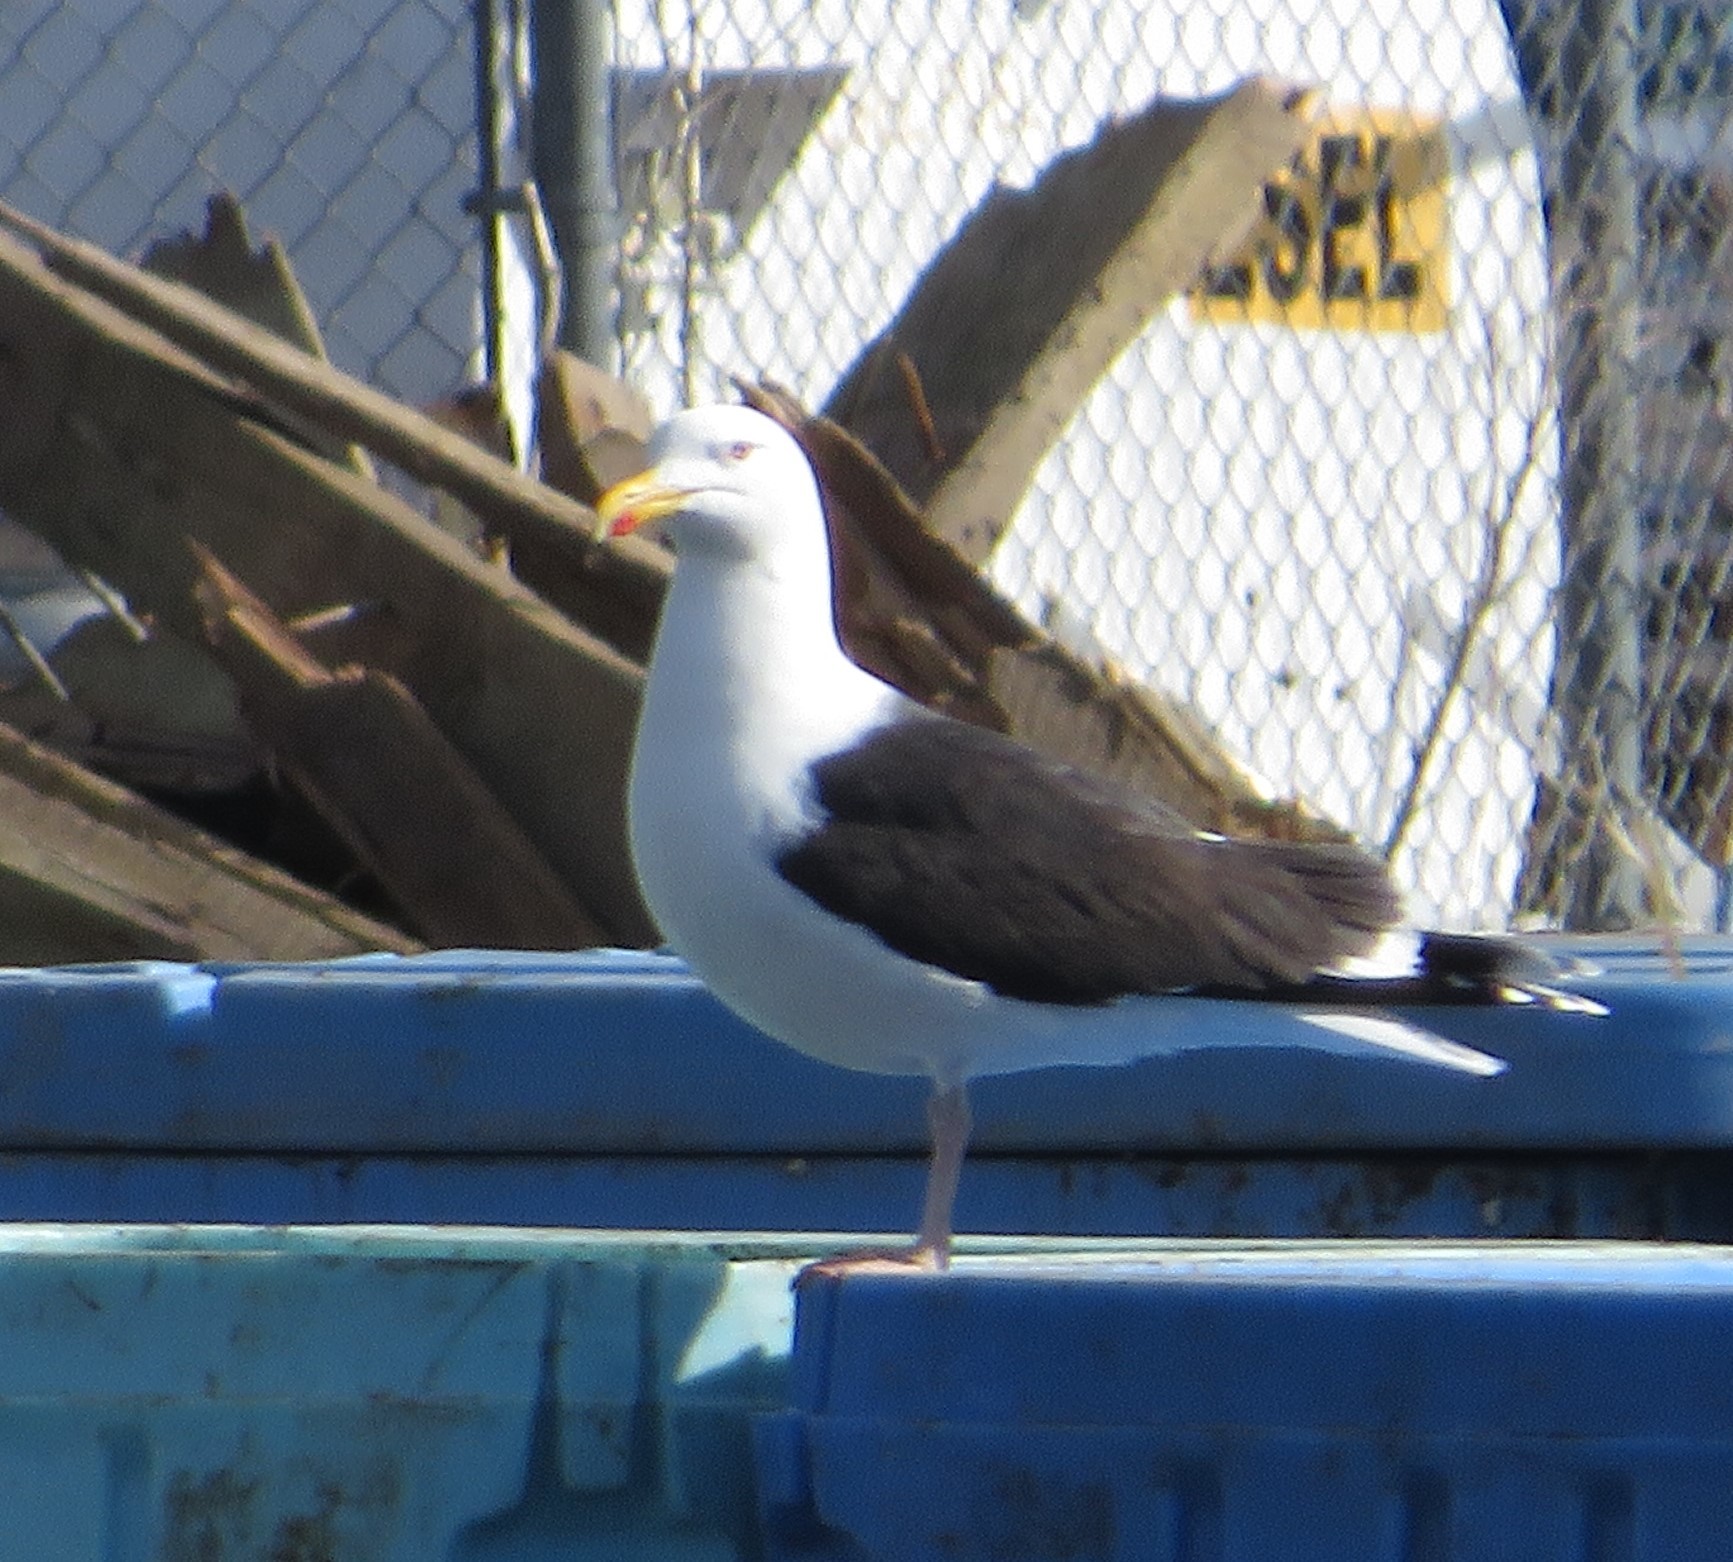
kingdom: Animalia
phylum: Chordata
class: Aves
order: Charadriiformes
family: Laridae
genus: Larus
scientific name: Larus marinus
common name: Great black-backed gull
